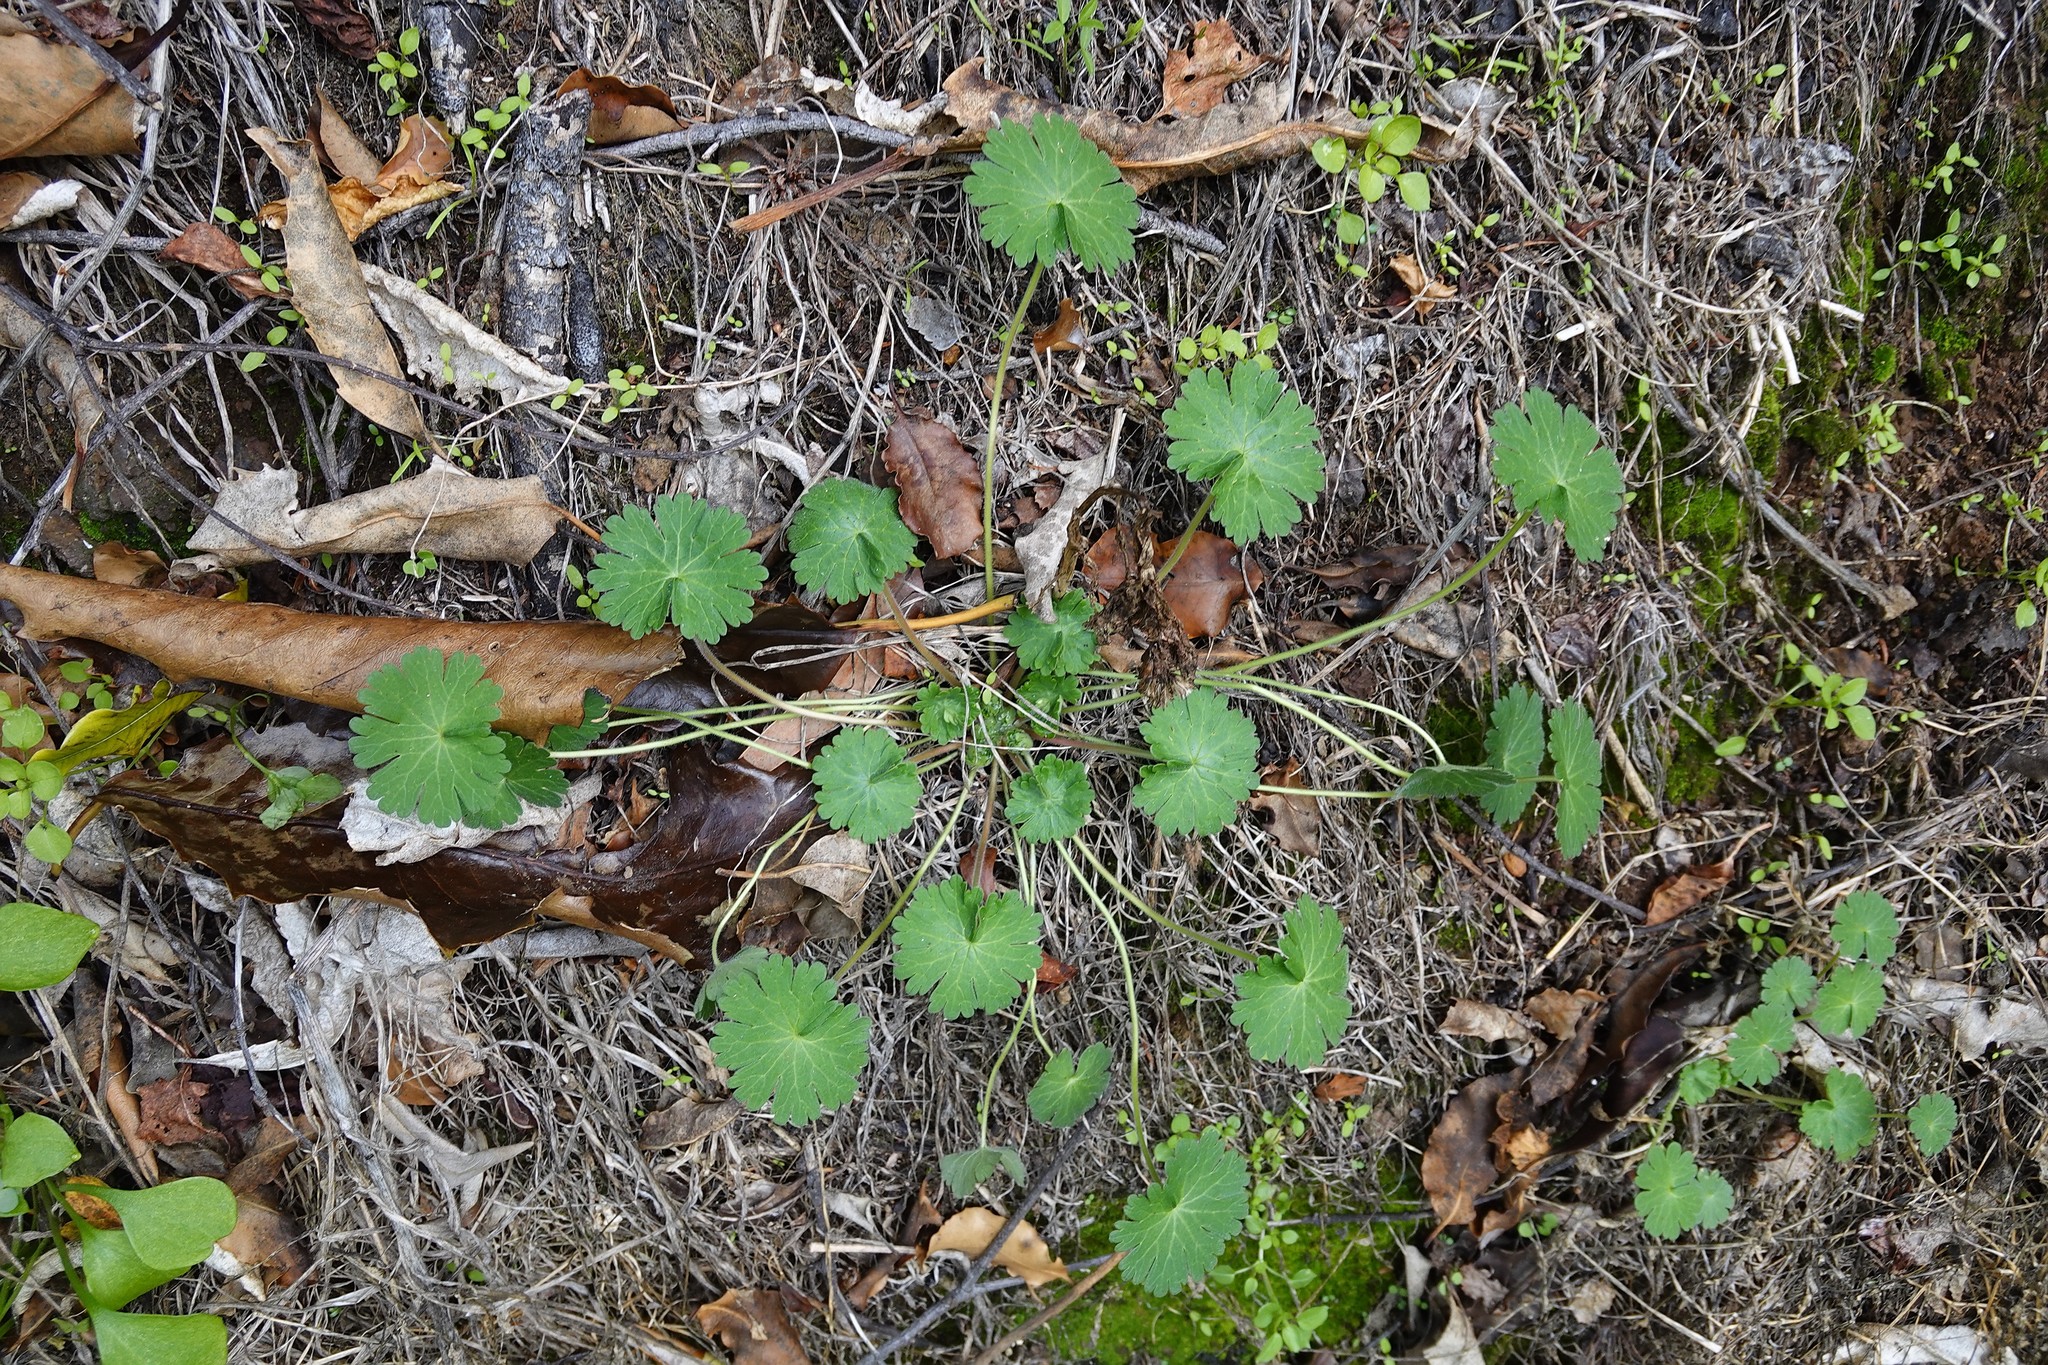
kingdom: Plantae
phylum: Tracheophyta
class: Magnoliopsida
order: Geraniales
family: Geraniaceae
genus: Geranium
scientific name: Geranium molle
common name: Dove's-foot crane's-bill
